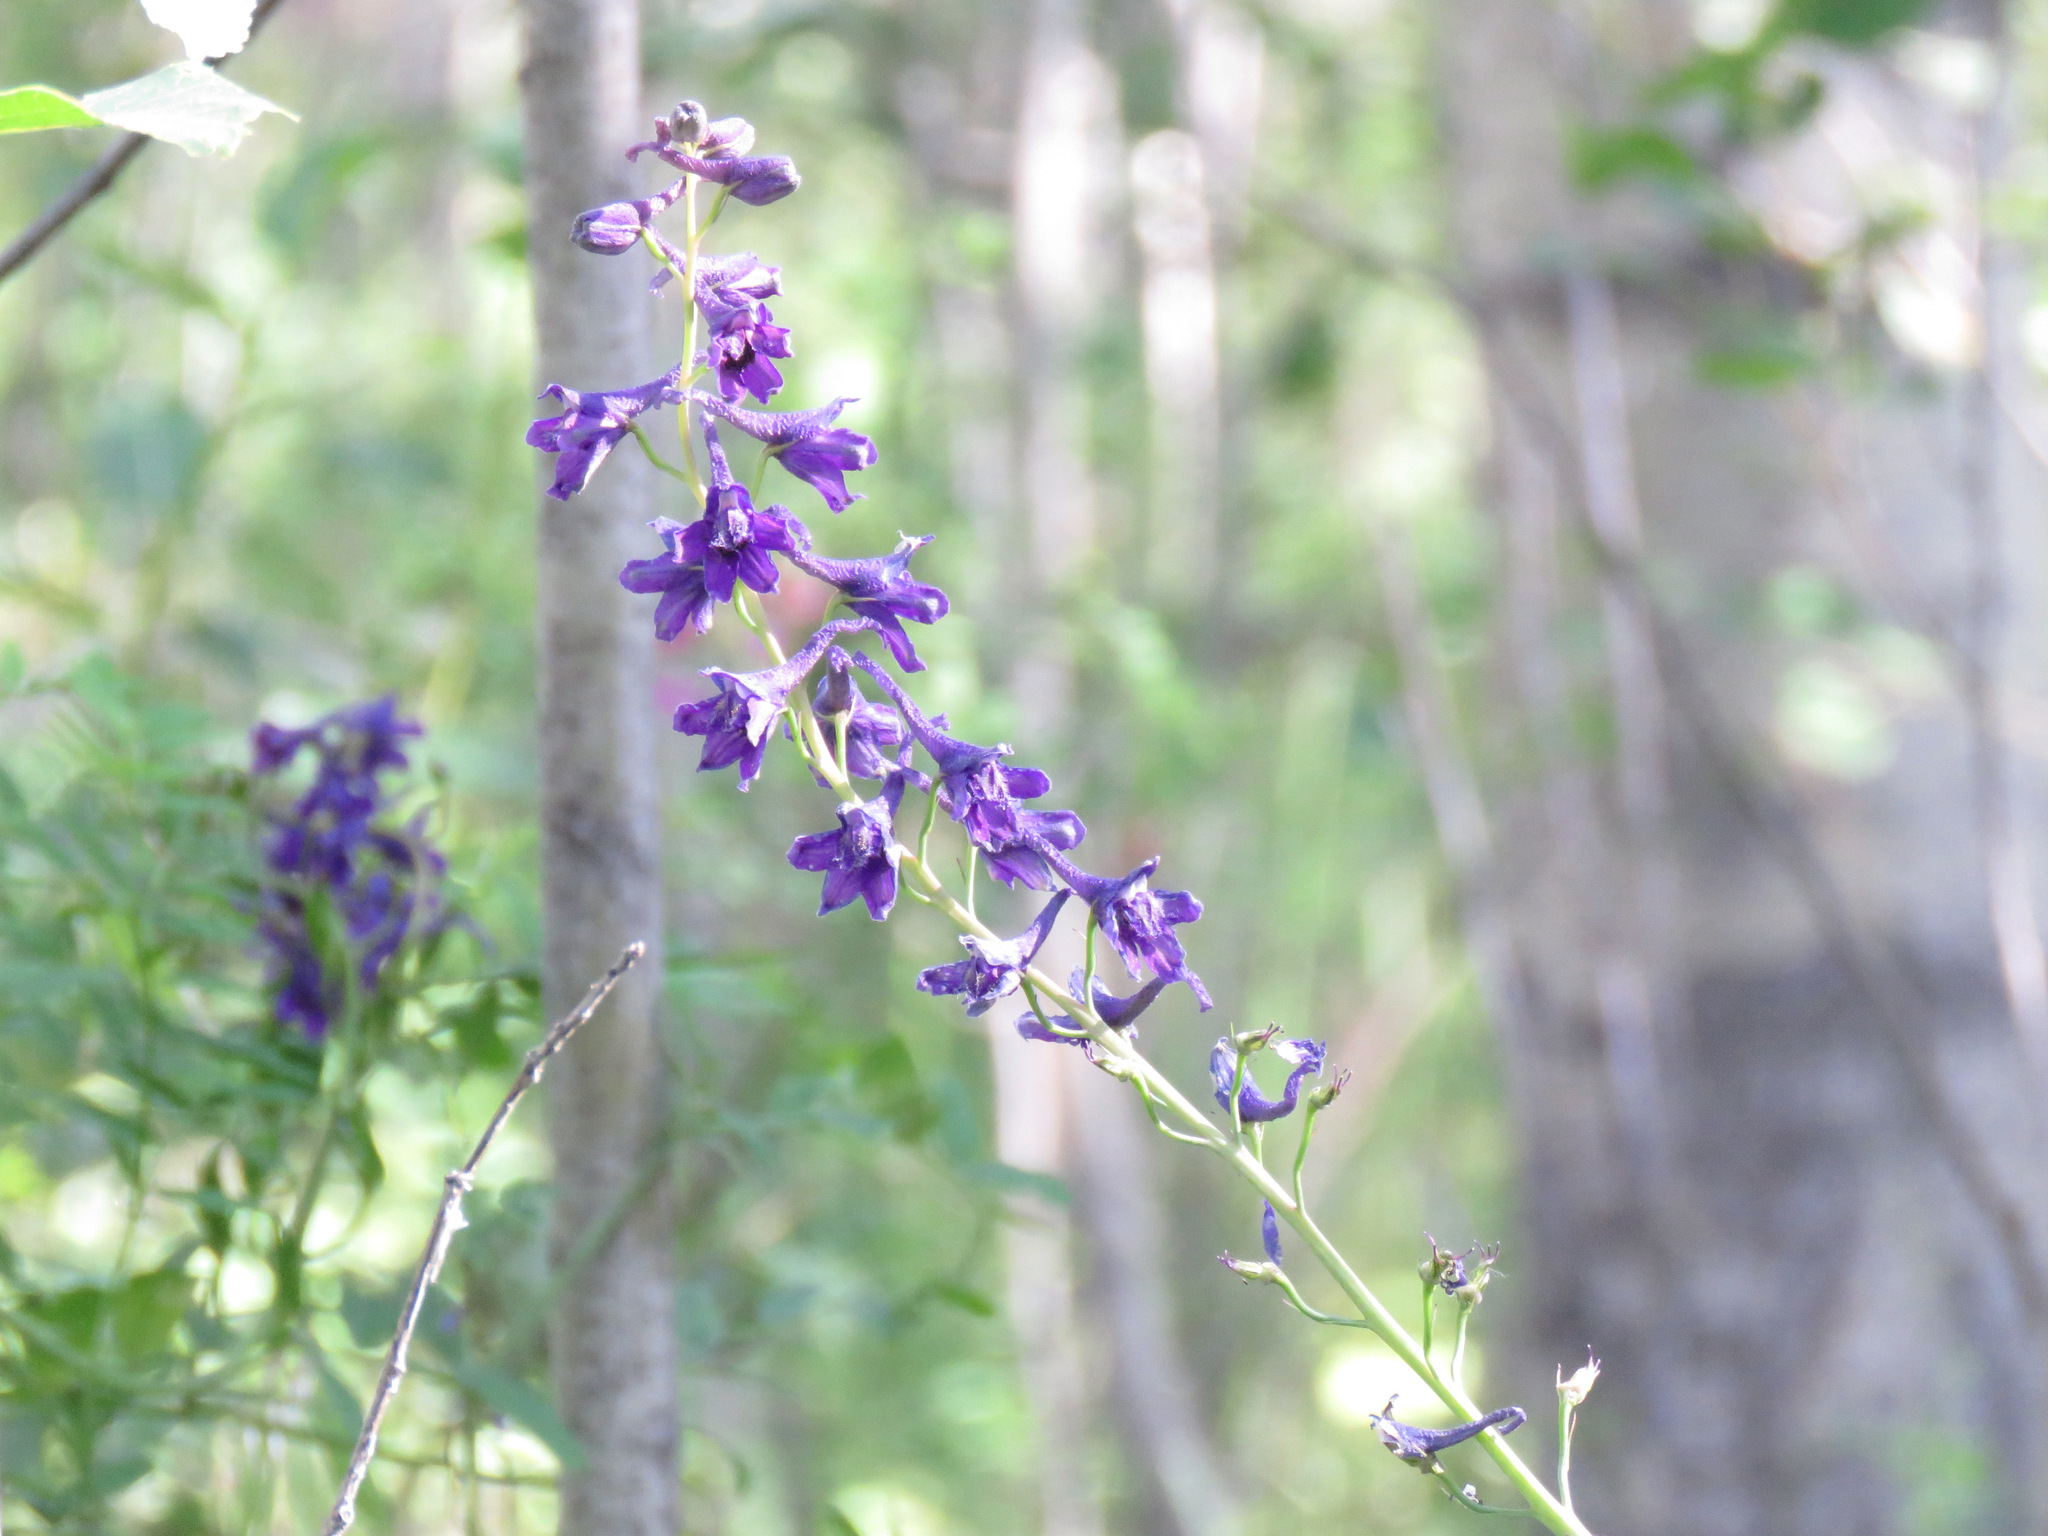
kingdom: Plantae
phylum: Tracheophyta
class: Magnoliopsida
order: Ranunculales
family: Ranunculaceae
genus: Delphinium
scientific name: Delphinium glaucum
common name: Brown's larkspur
